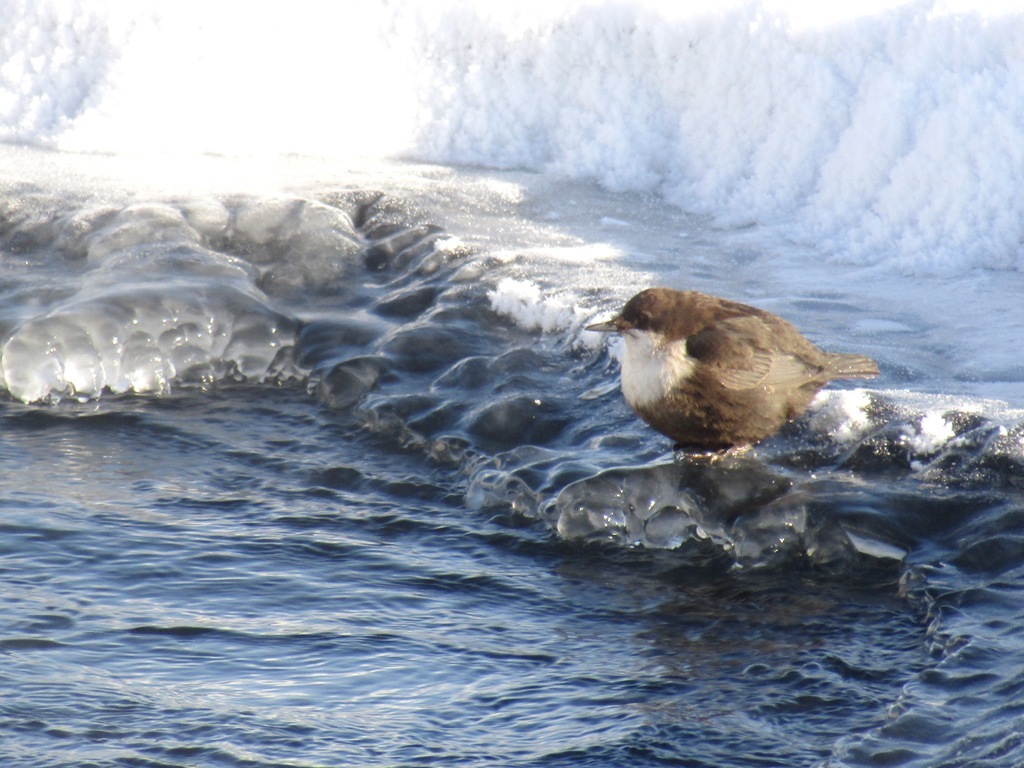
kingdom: Animalia
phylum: Chordata
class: Aves
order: Passeriformes
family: Cinclidae
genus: Cinclus
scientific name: Cinclus cinclus
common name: White-throated dipper
